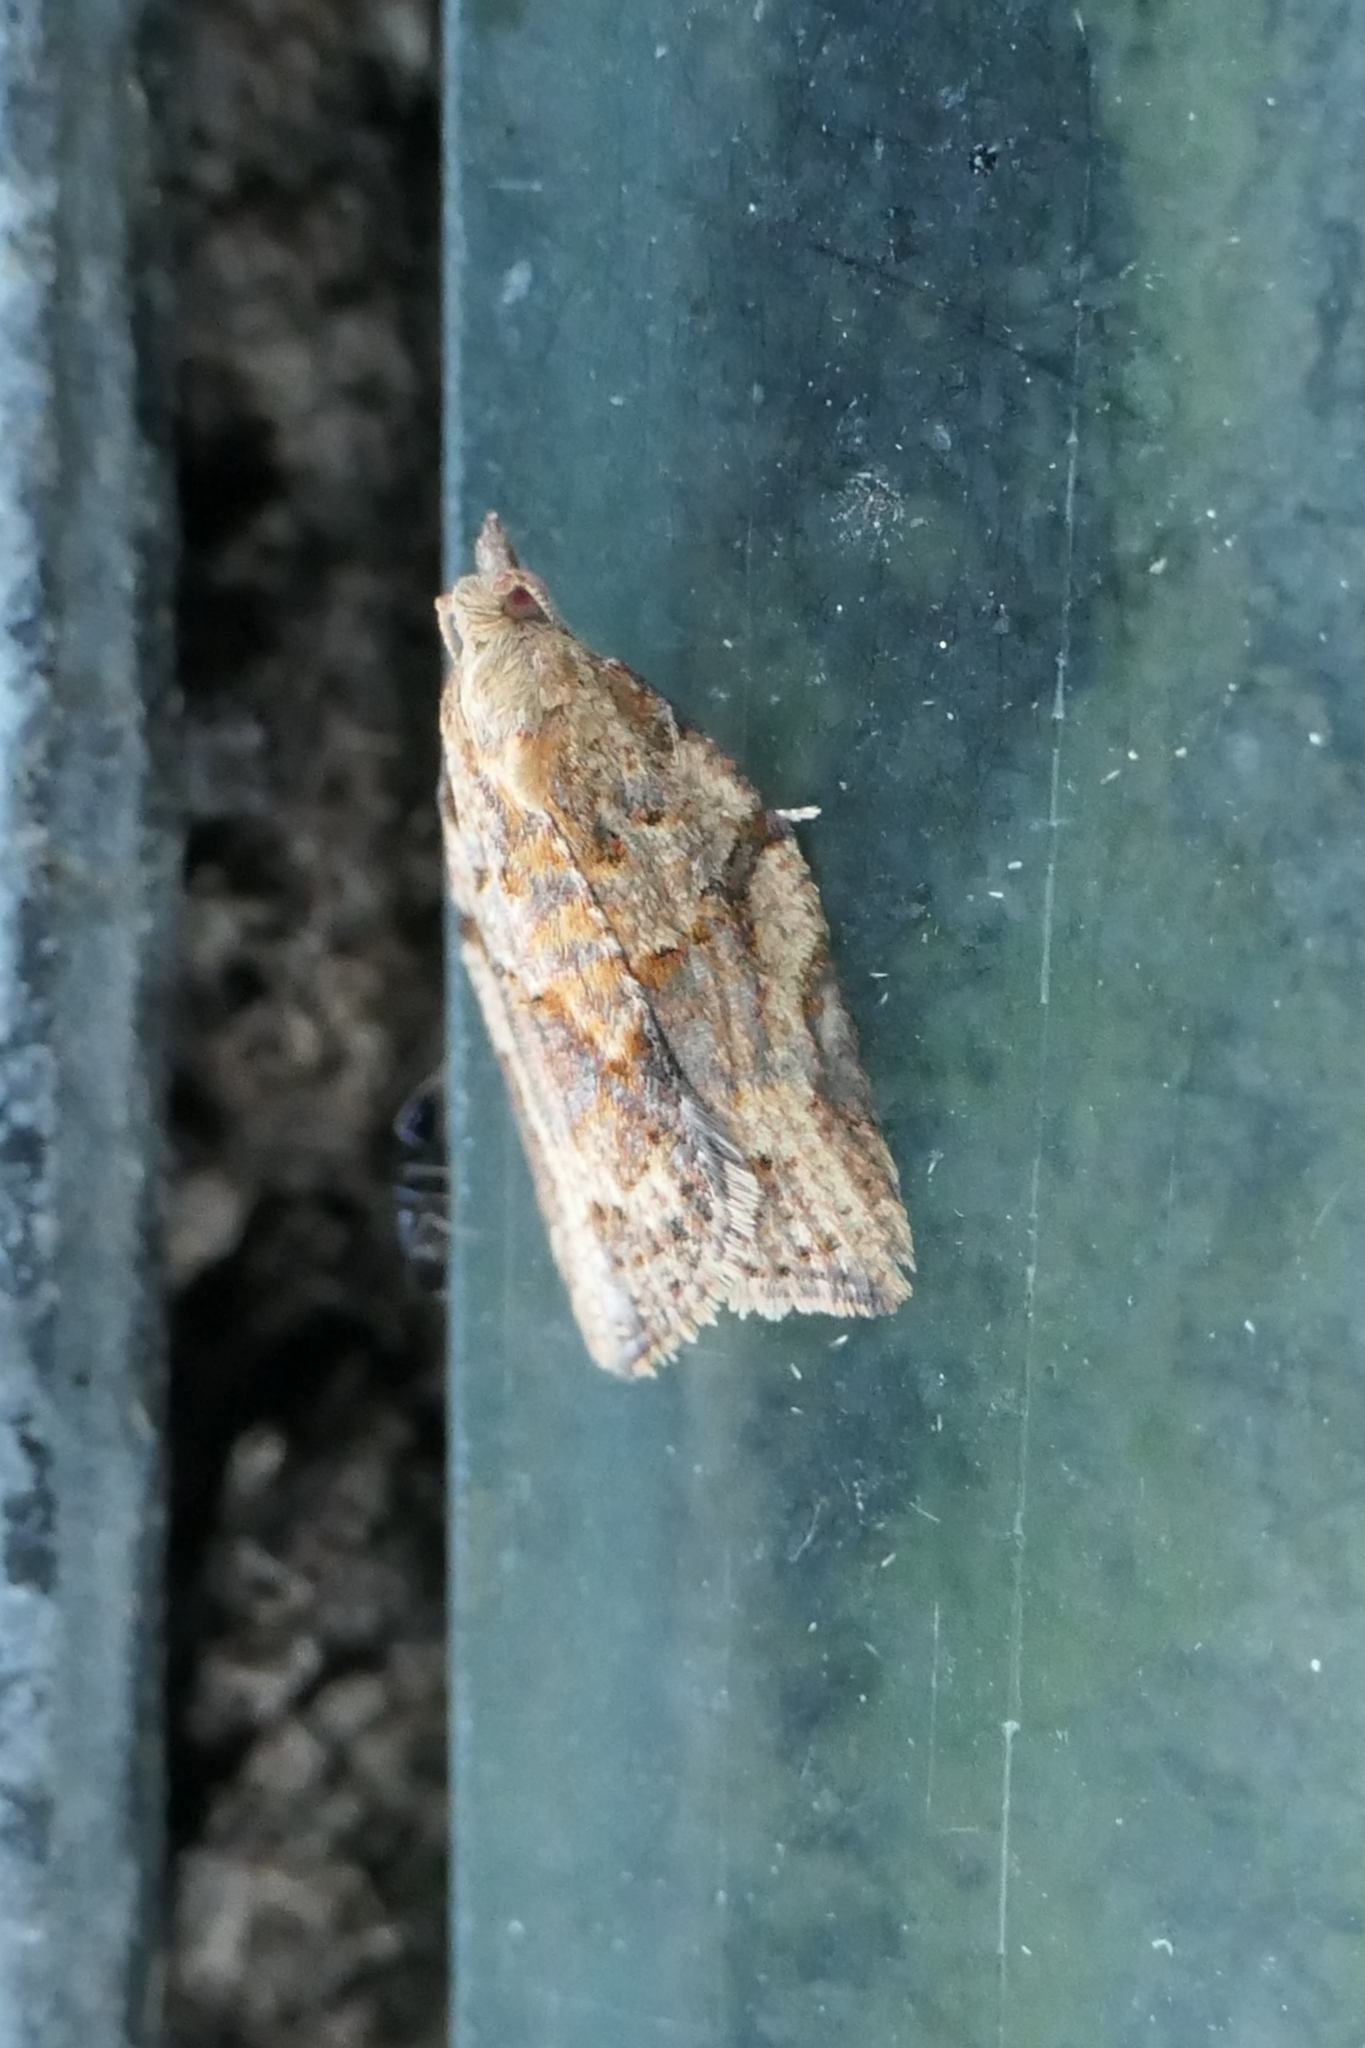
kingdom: Animalia
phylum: Arthropoda
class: Insecta
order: Lepidoptera
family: Tortricidae
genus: Epiphyas
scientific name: Epiphyas postvittana
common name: Light brown apple moth
